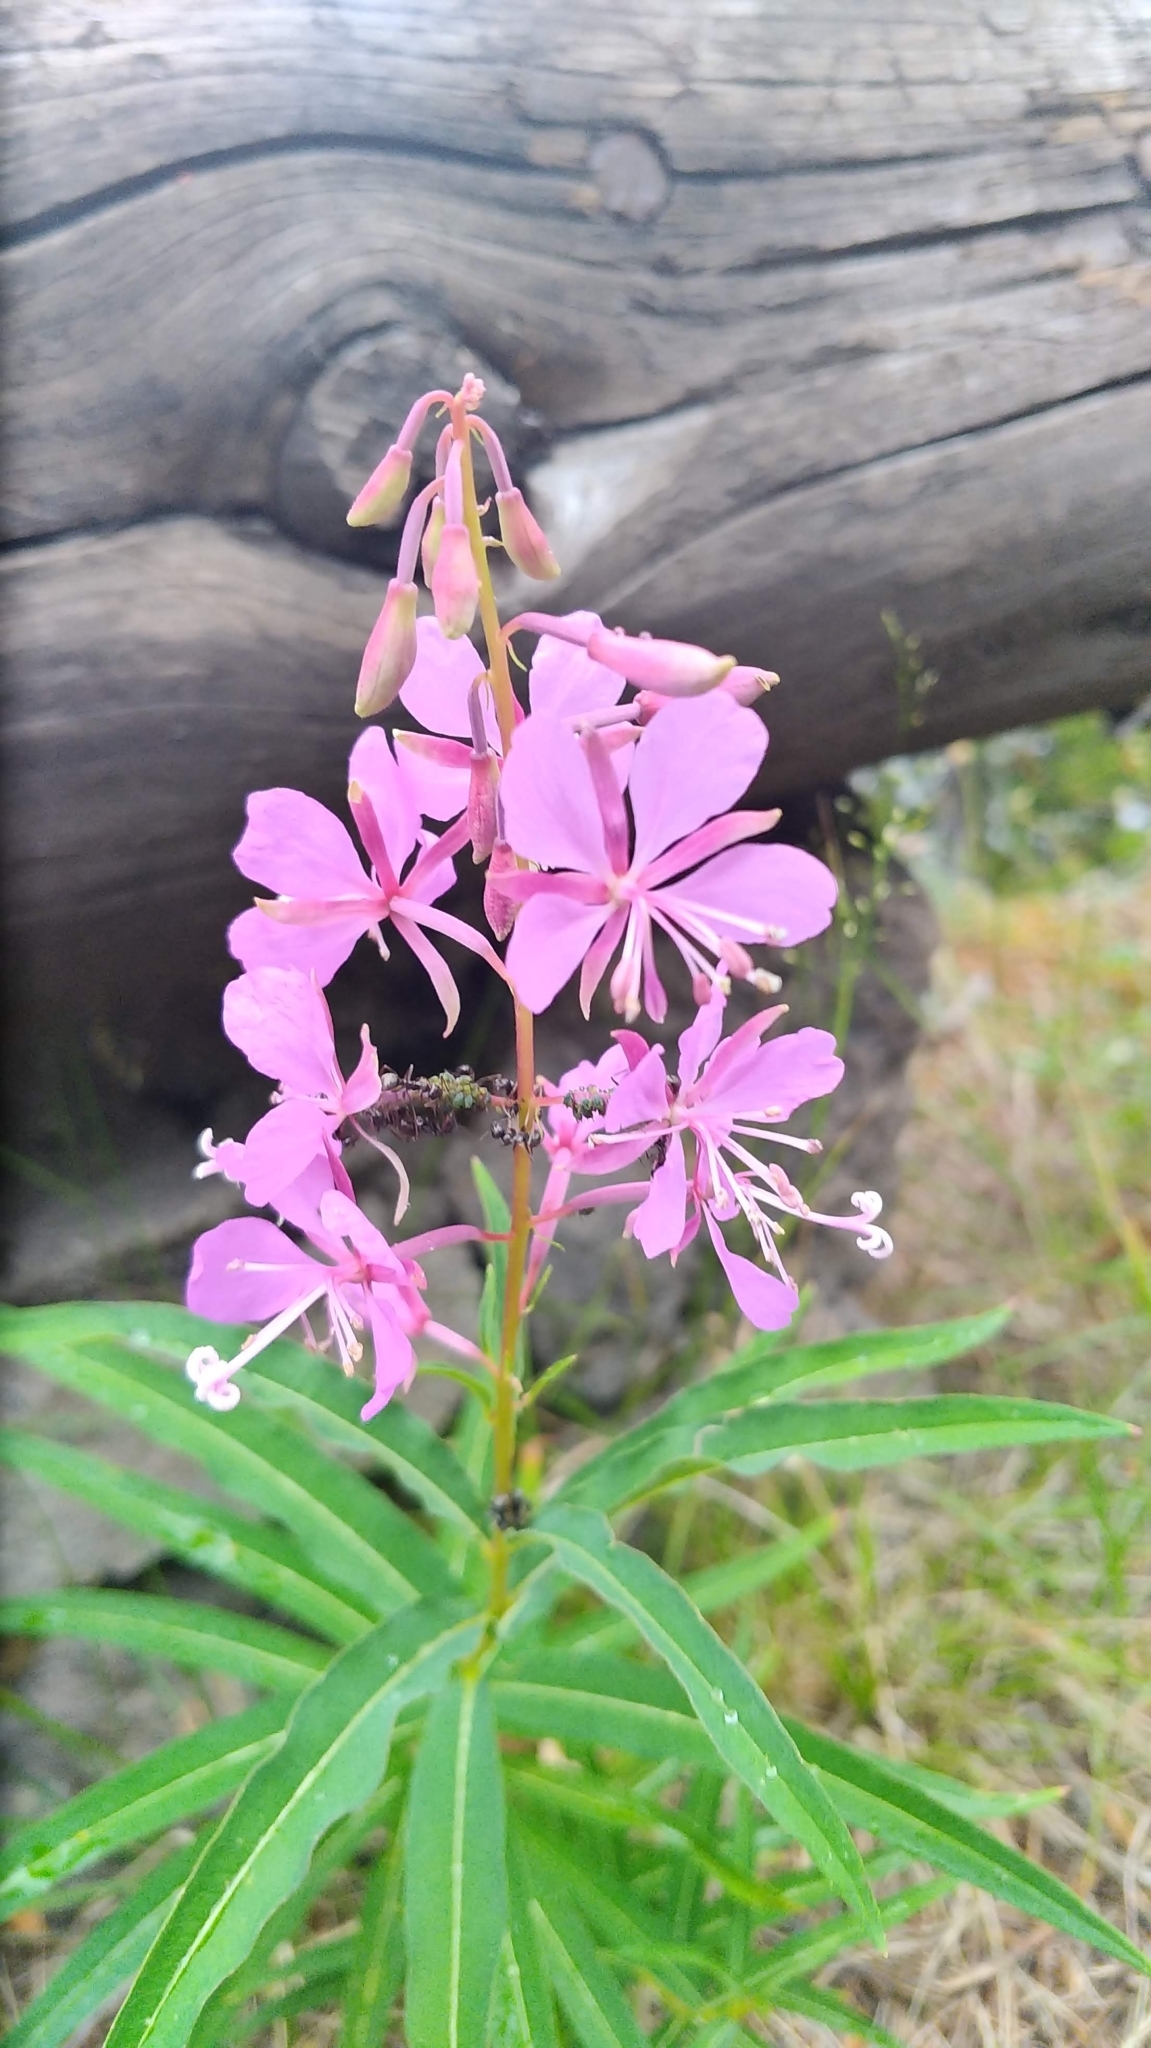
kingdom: Plantae
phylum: Tracheophyta
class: Magnoliopsida
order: Myrtales
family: Onagraceae
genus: Chamaenerion
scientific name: Chamaenerion angustifolium
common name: Fireweed
